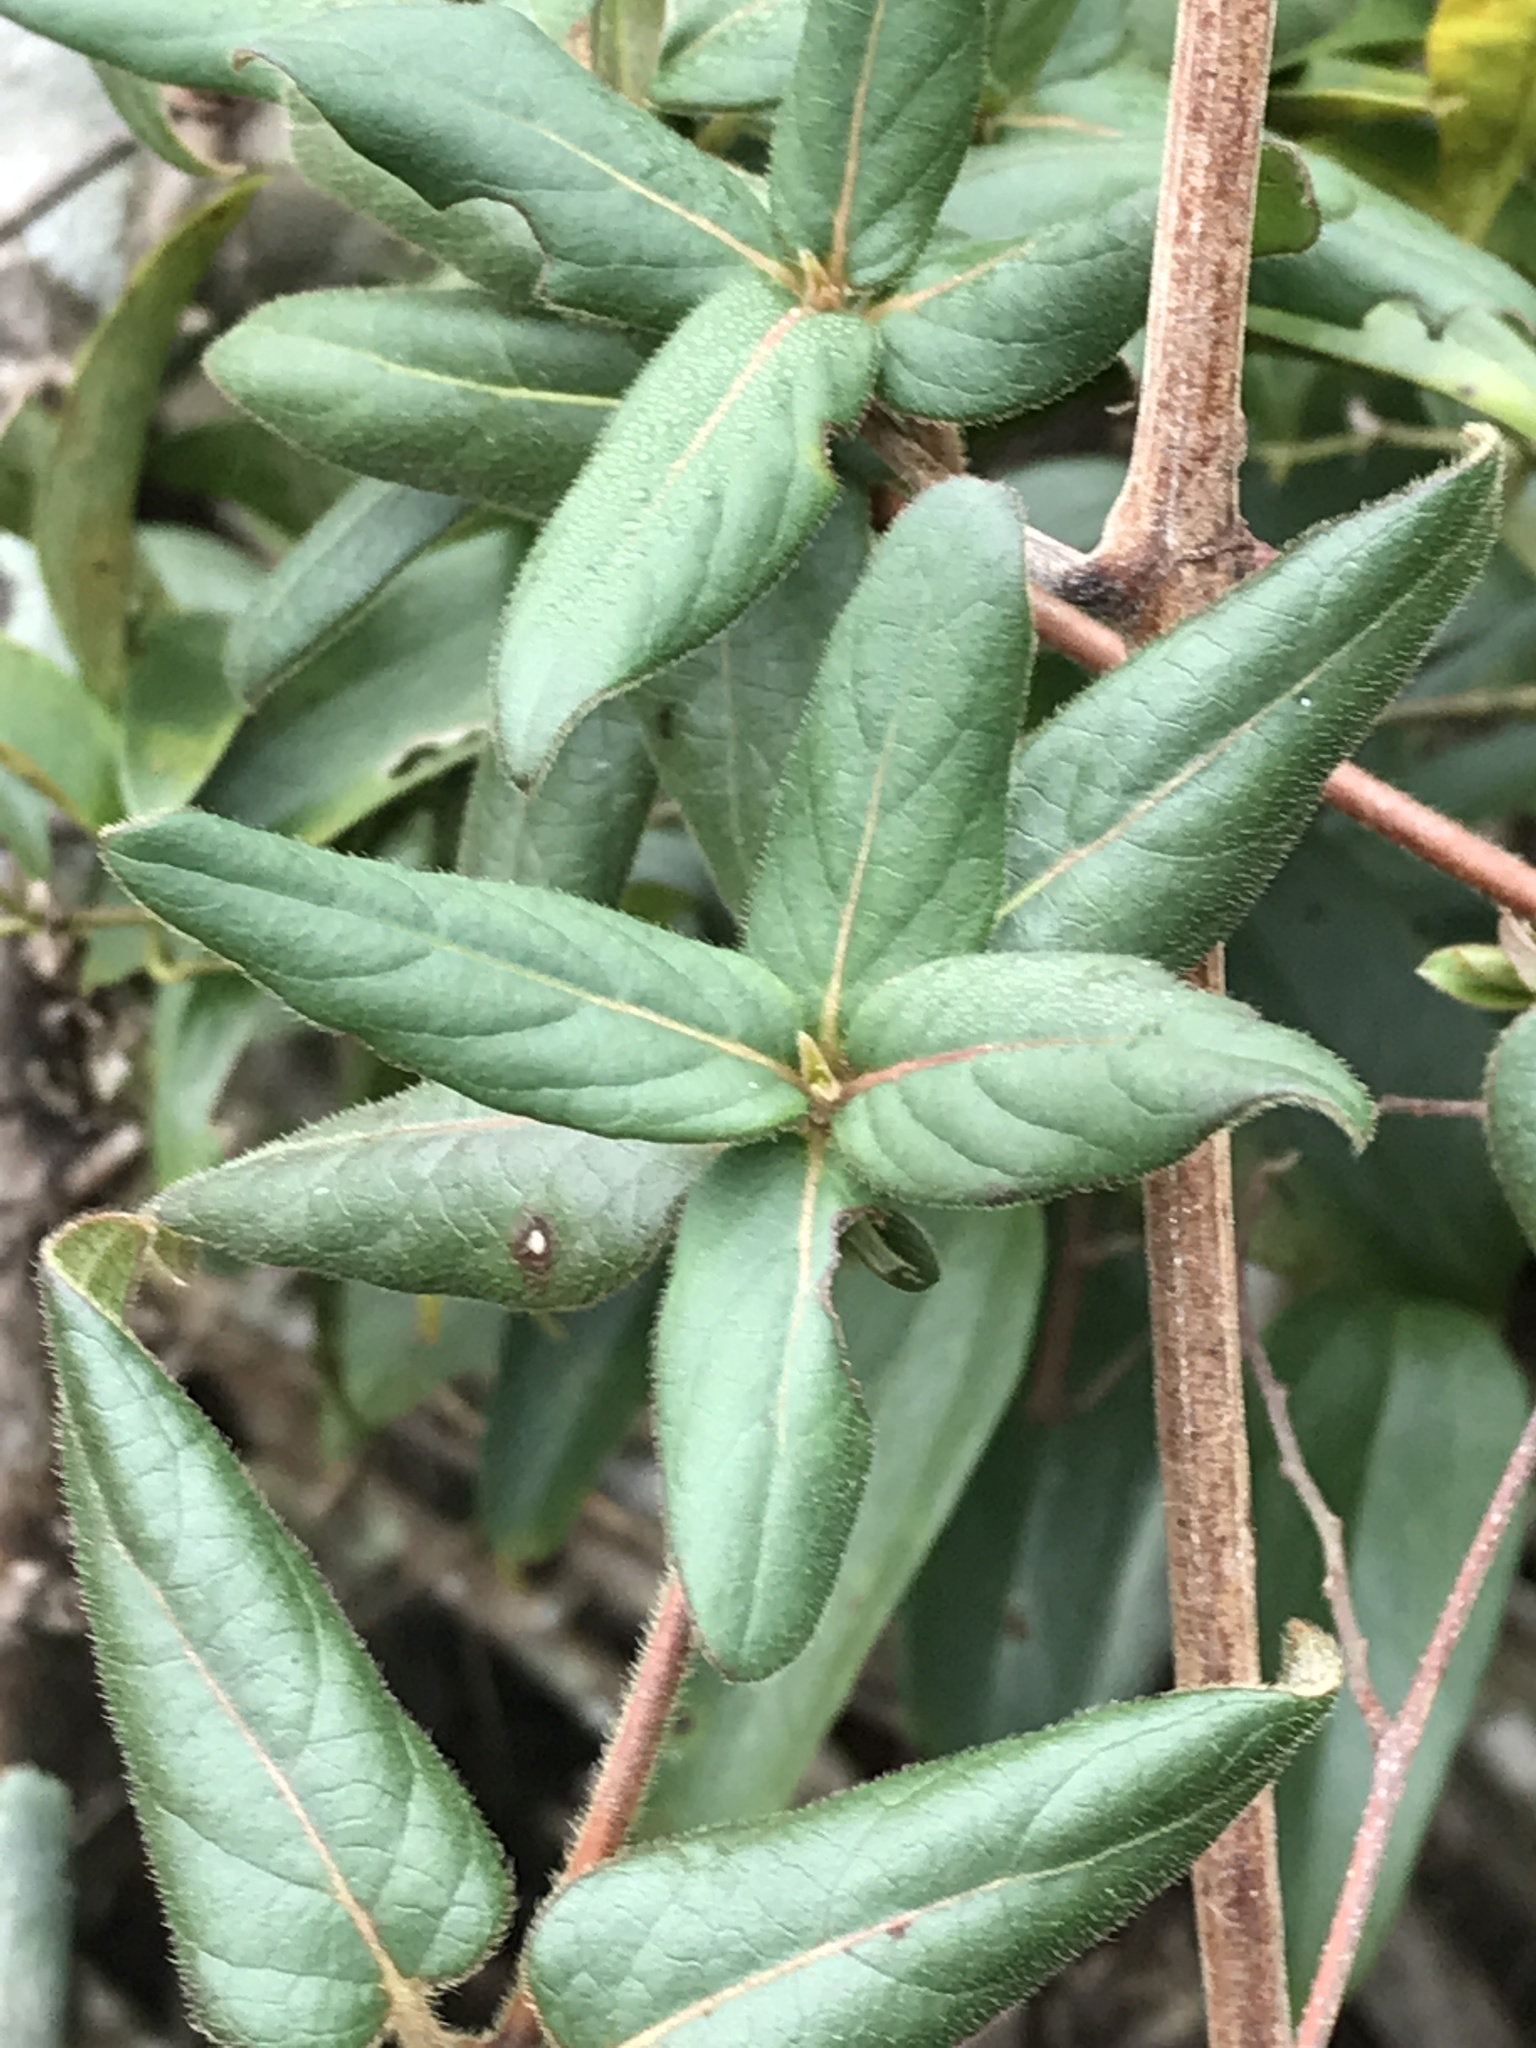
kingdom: Plantae
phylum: Tracheophyta
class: Magnoliopsida
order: Dipsacales
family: Caprifoliaceae
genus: Lonicera
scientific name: Lonicera japonica
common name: Japanese honeysuckle
